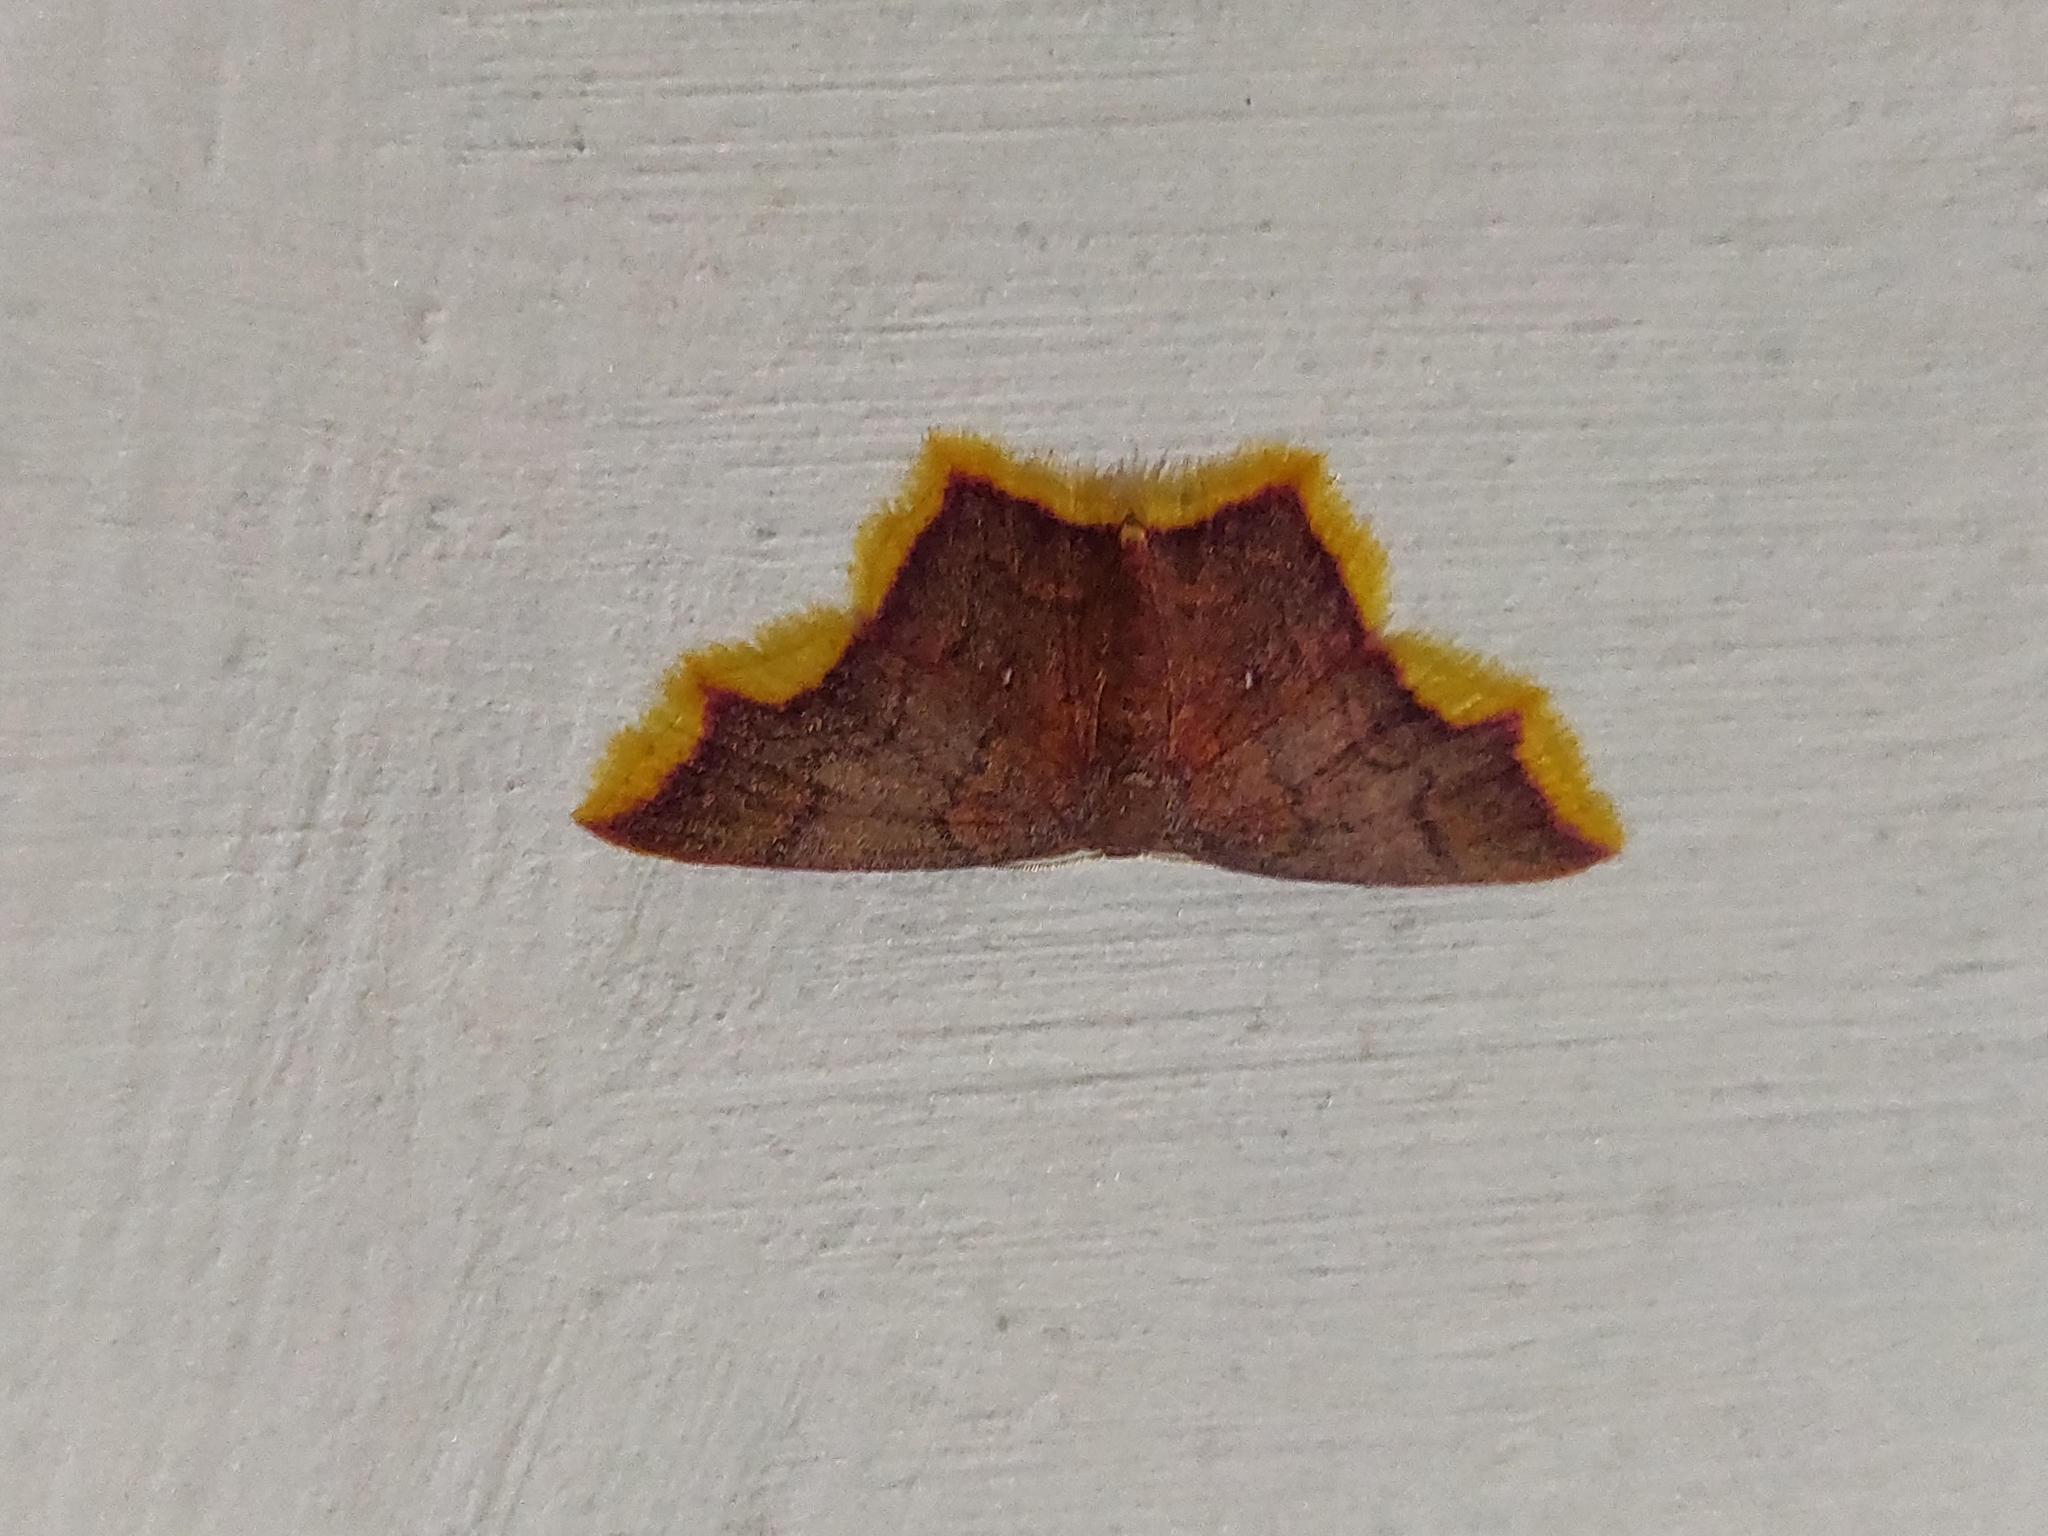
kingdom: Animalia
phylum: Arthropoda
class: Insecta
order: Lepidoptera
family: Geometridae
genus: Chrysocraspeda
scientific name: Chrysocraspeda faganaria
